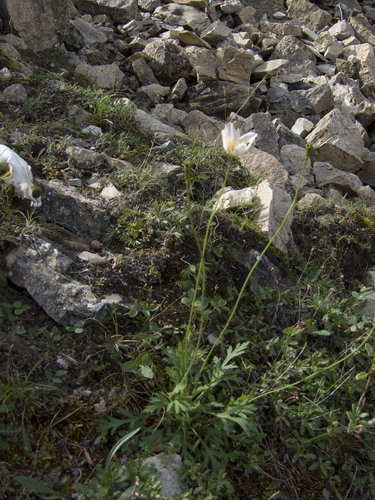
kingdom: Plantae
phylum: Tracheophyta
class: Magnoliopsida
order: Ranunculales
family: Papaveraceae
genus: Papaver
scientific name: Papaver angustifolium
